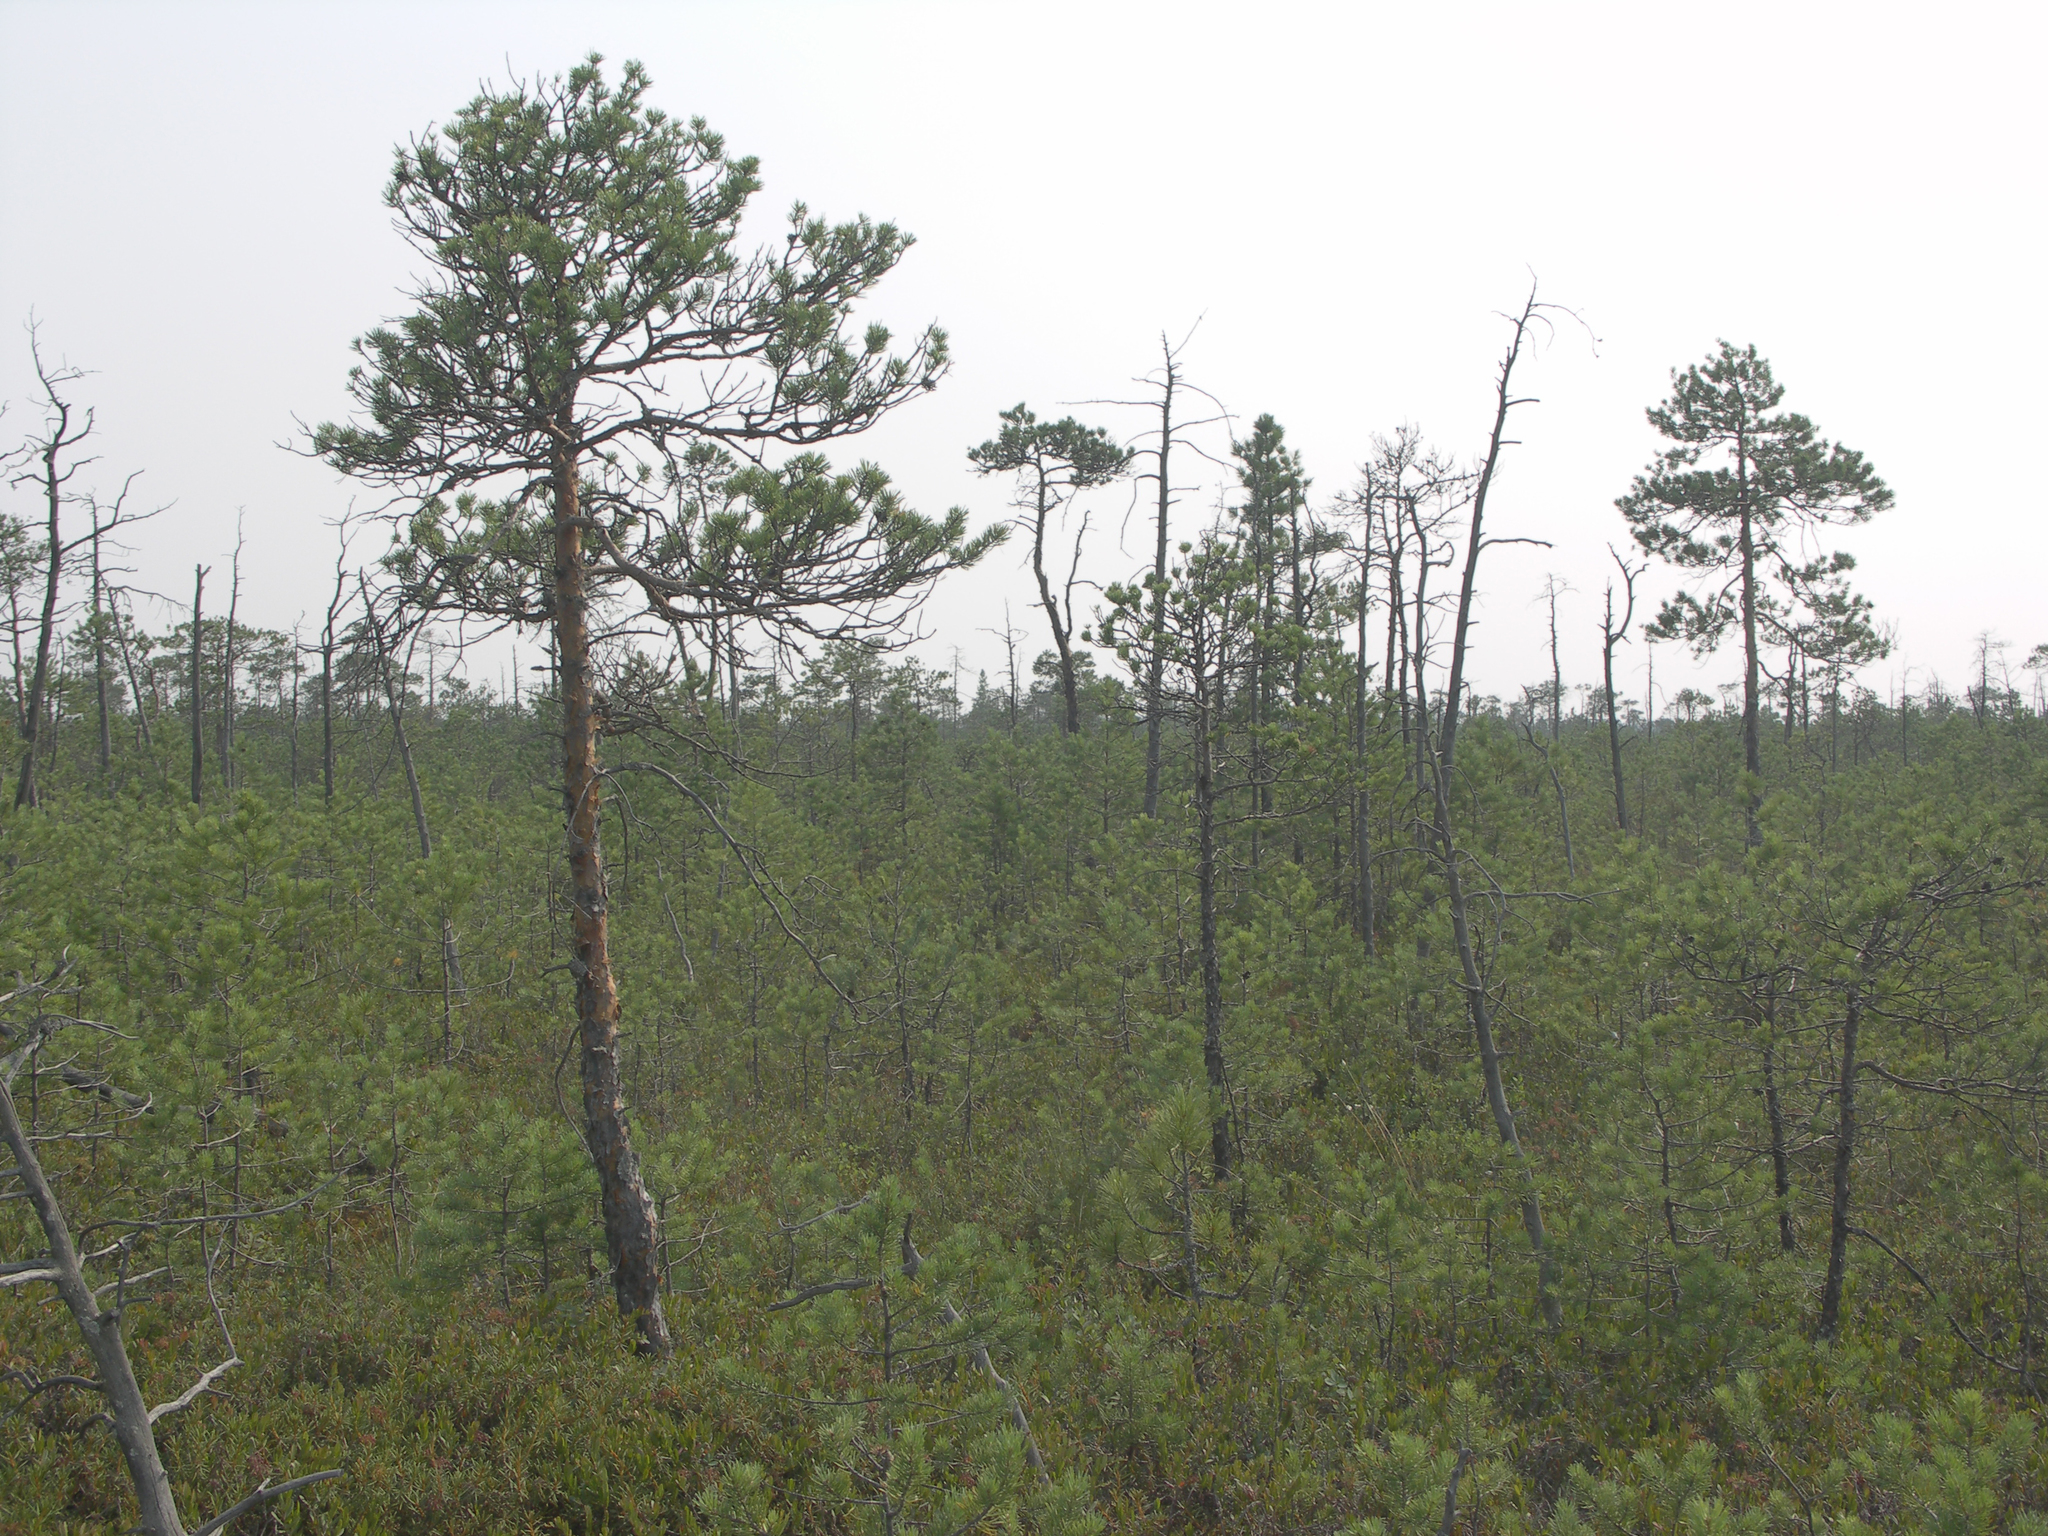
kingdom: Plantae
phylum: Tracheophyta
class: Pinopsida
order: Pinales
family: Pinaceae
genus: Pinus
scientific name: Pinus sylvestris
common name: Scots pine
